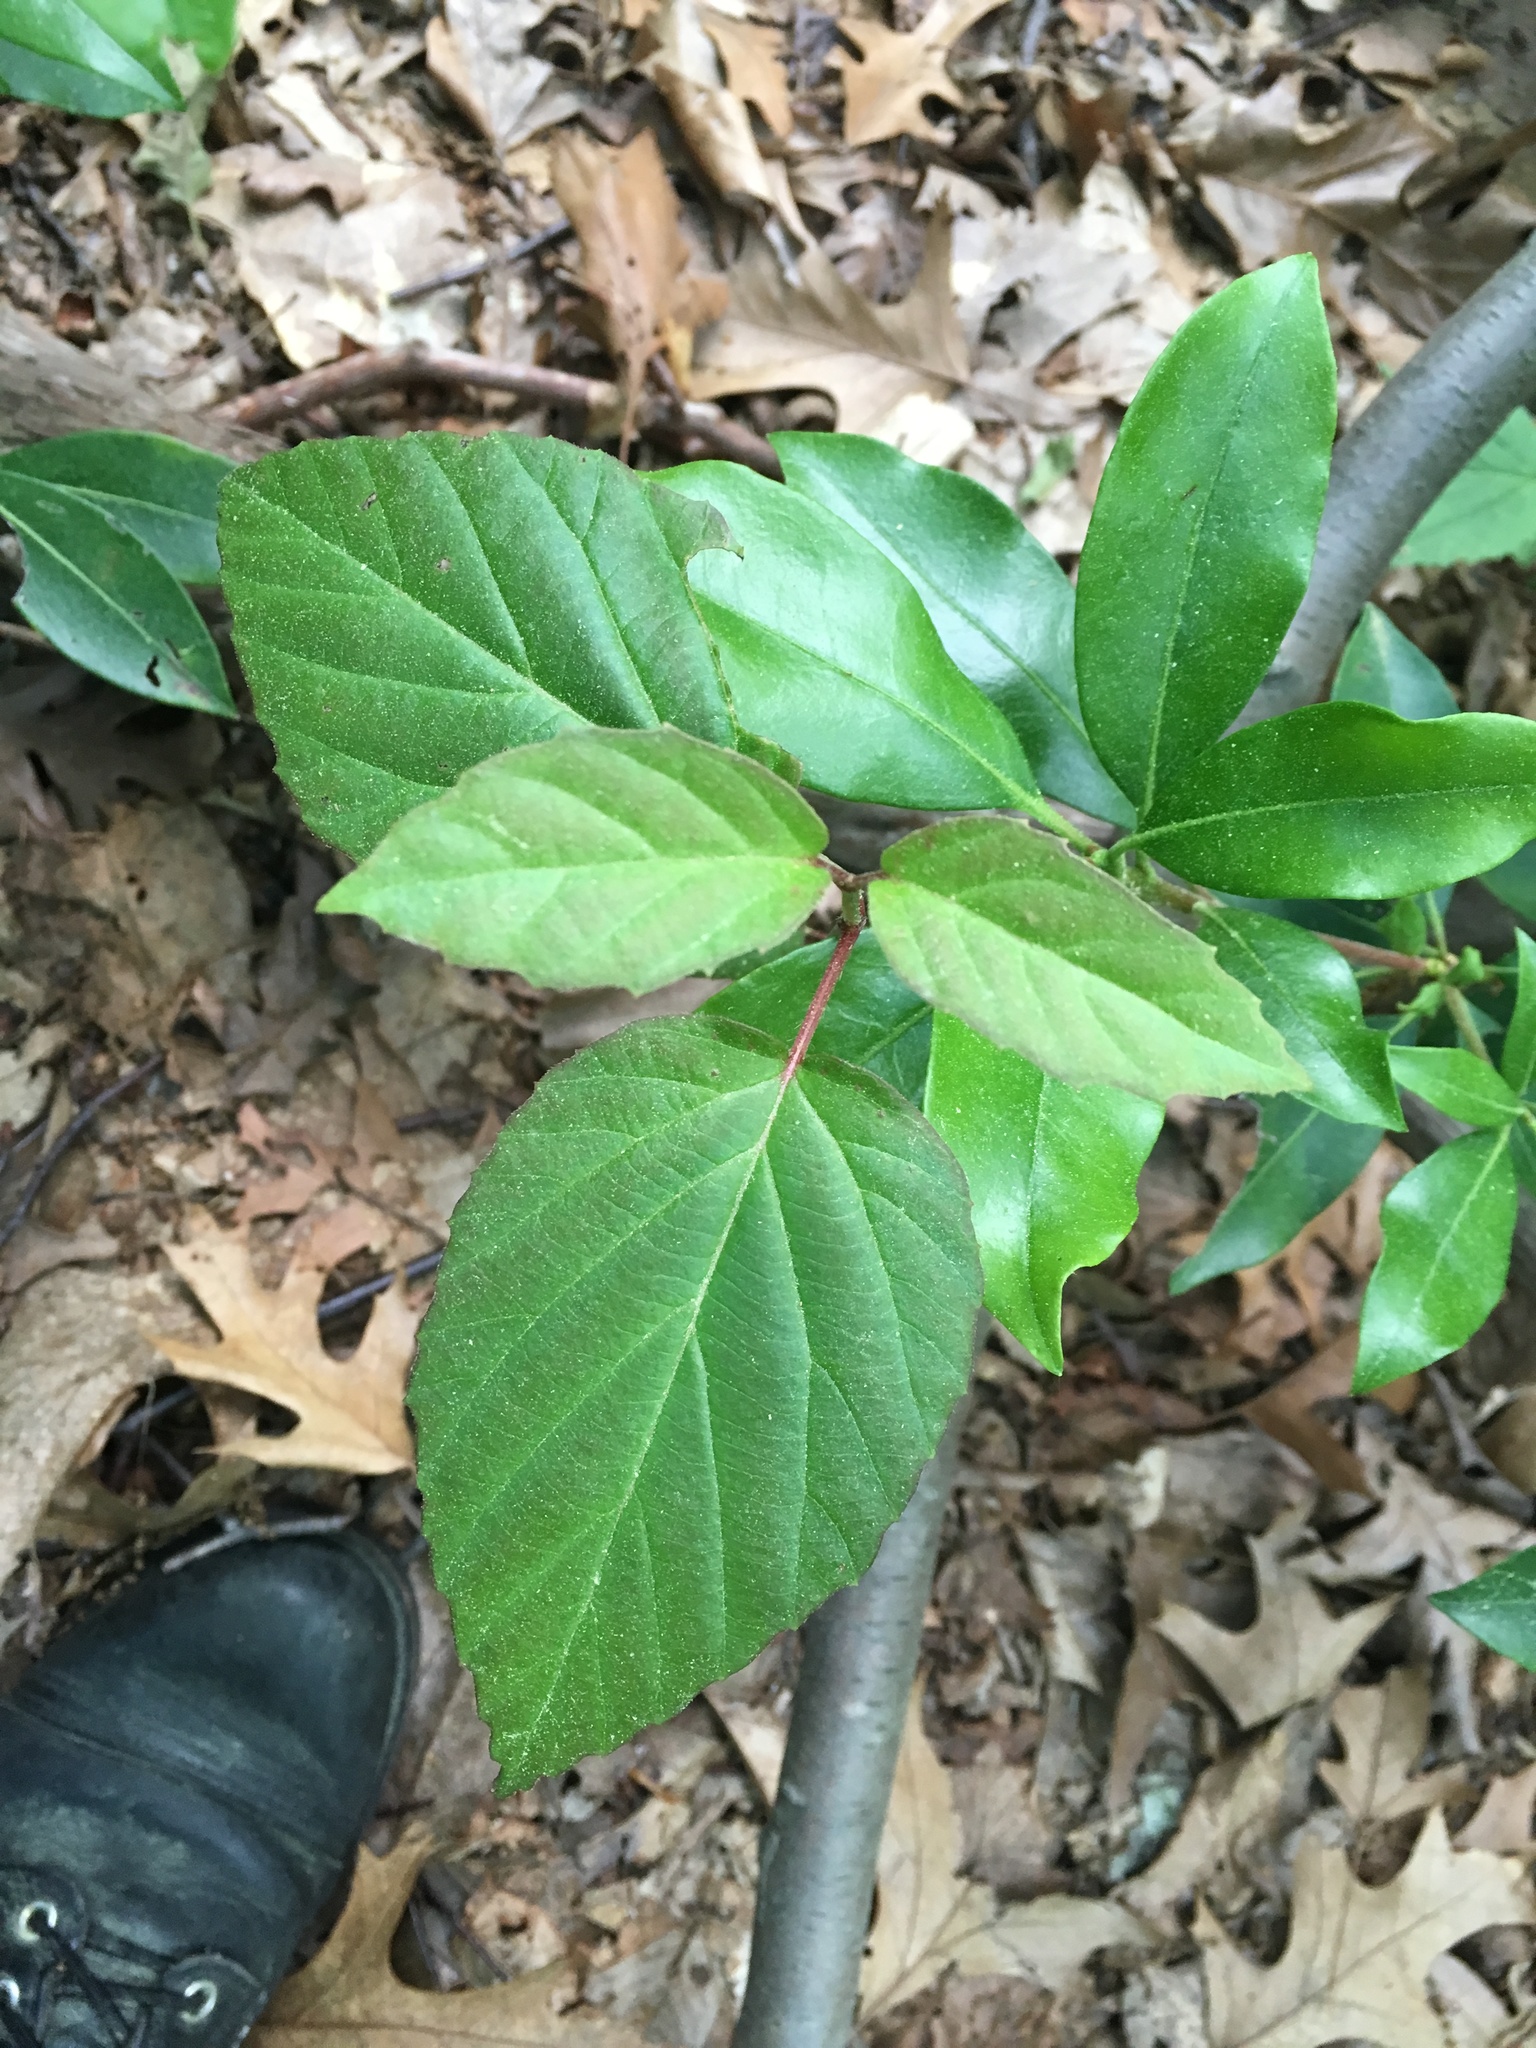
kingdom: Plantae
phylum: Tracheophyta
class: Magnoliopsida
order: Dipsacales
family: Viburnaceae
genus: Viburnum
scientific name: Viburnum setigerum
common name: Tea viburnum
